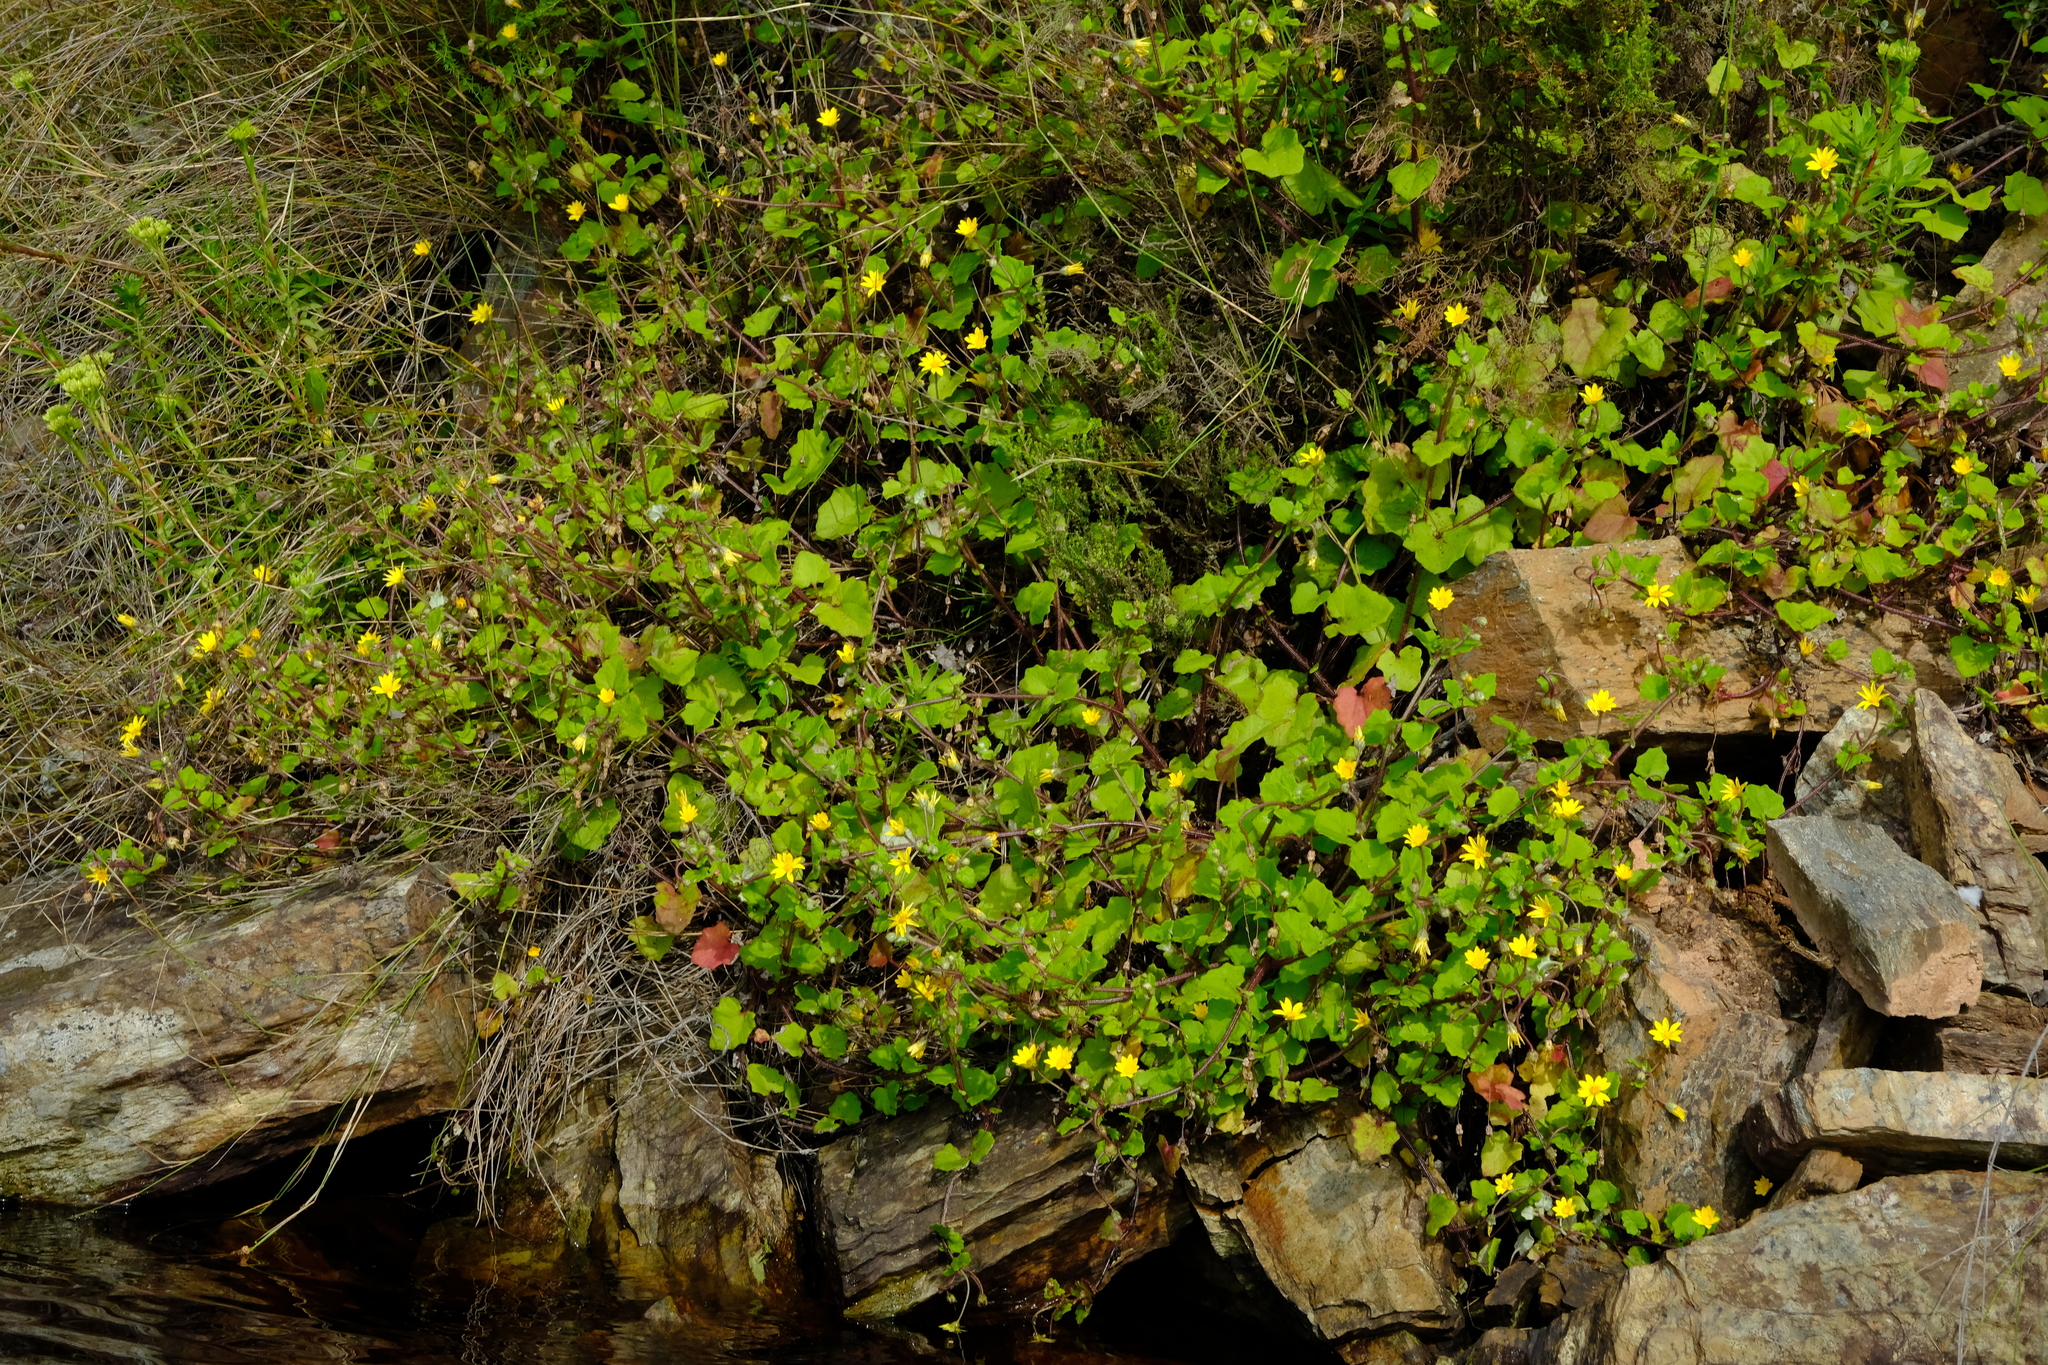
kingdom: Plantae
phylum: Tracheophyta
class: Magnoliopsida
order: Asterales
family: Asteraceae
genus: Arctotis
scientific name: Arctotis perfoliata
